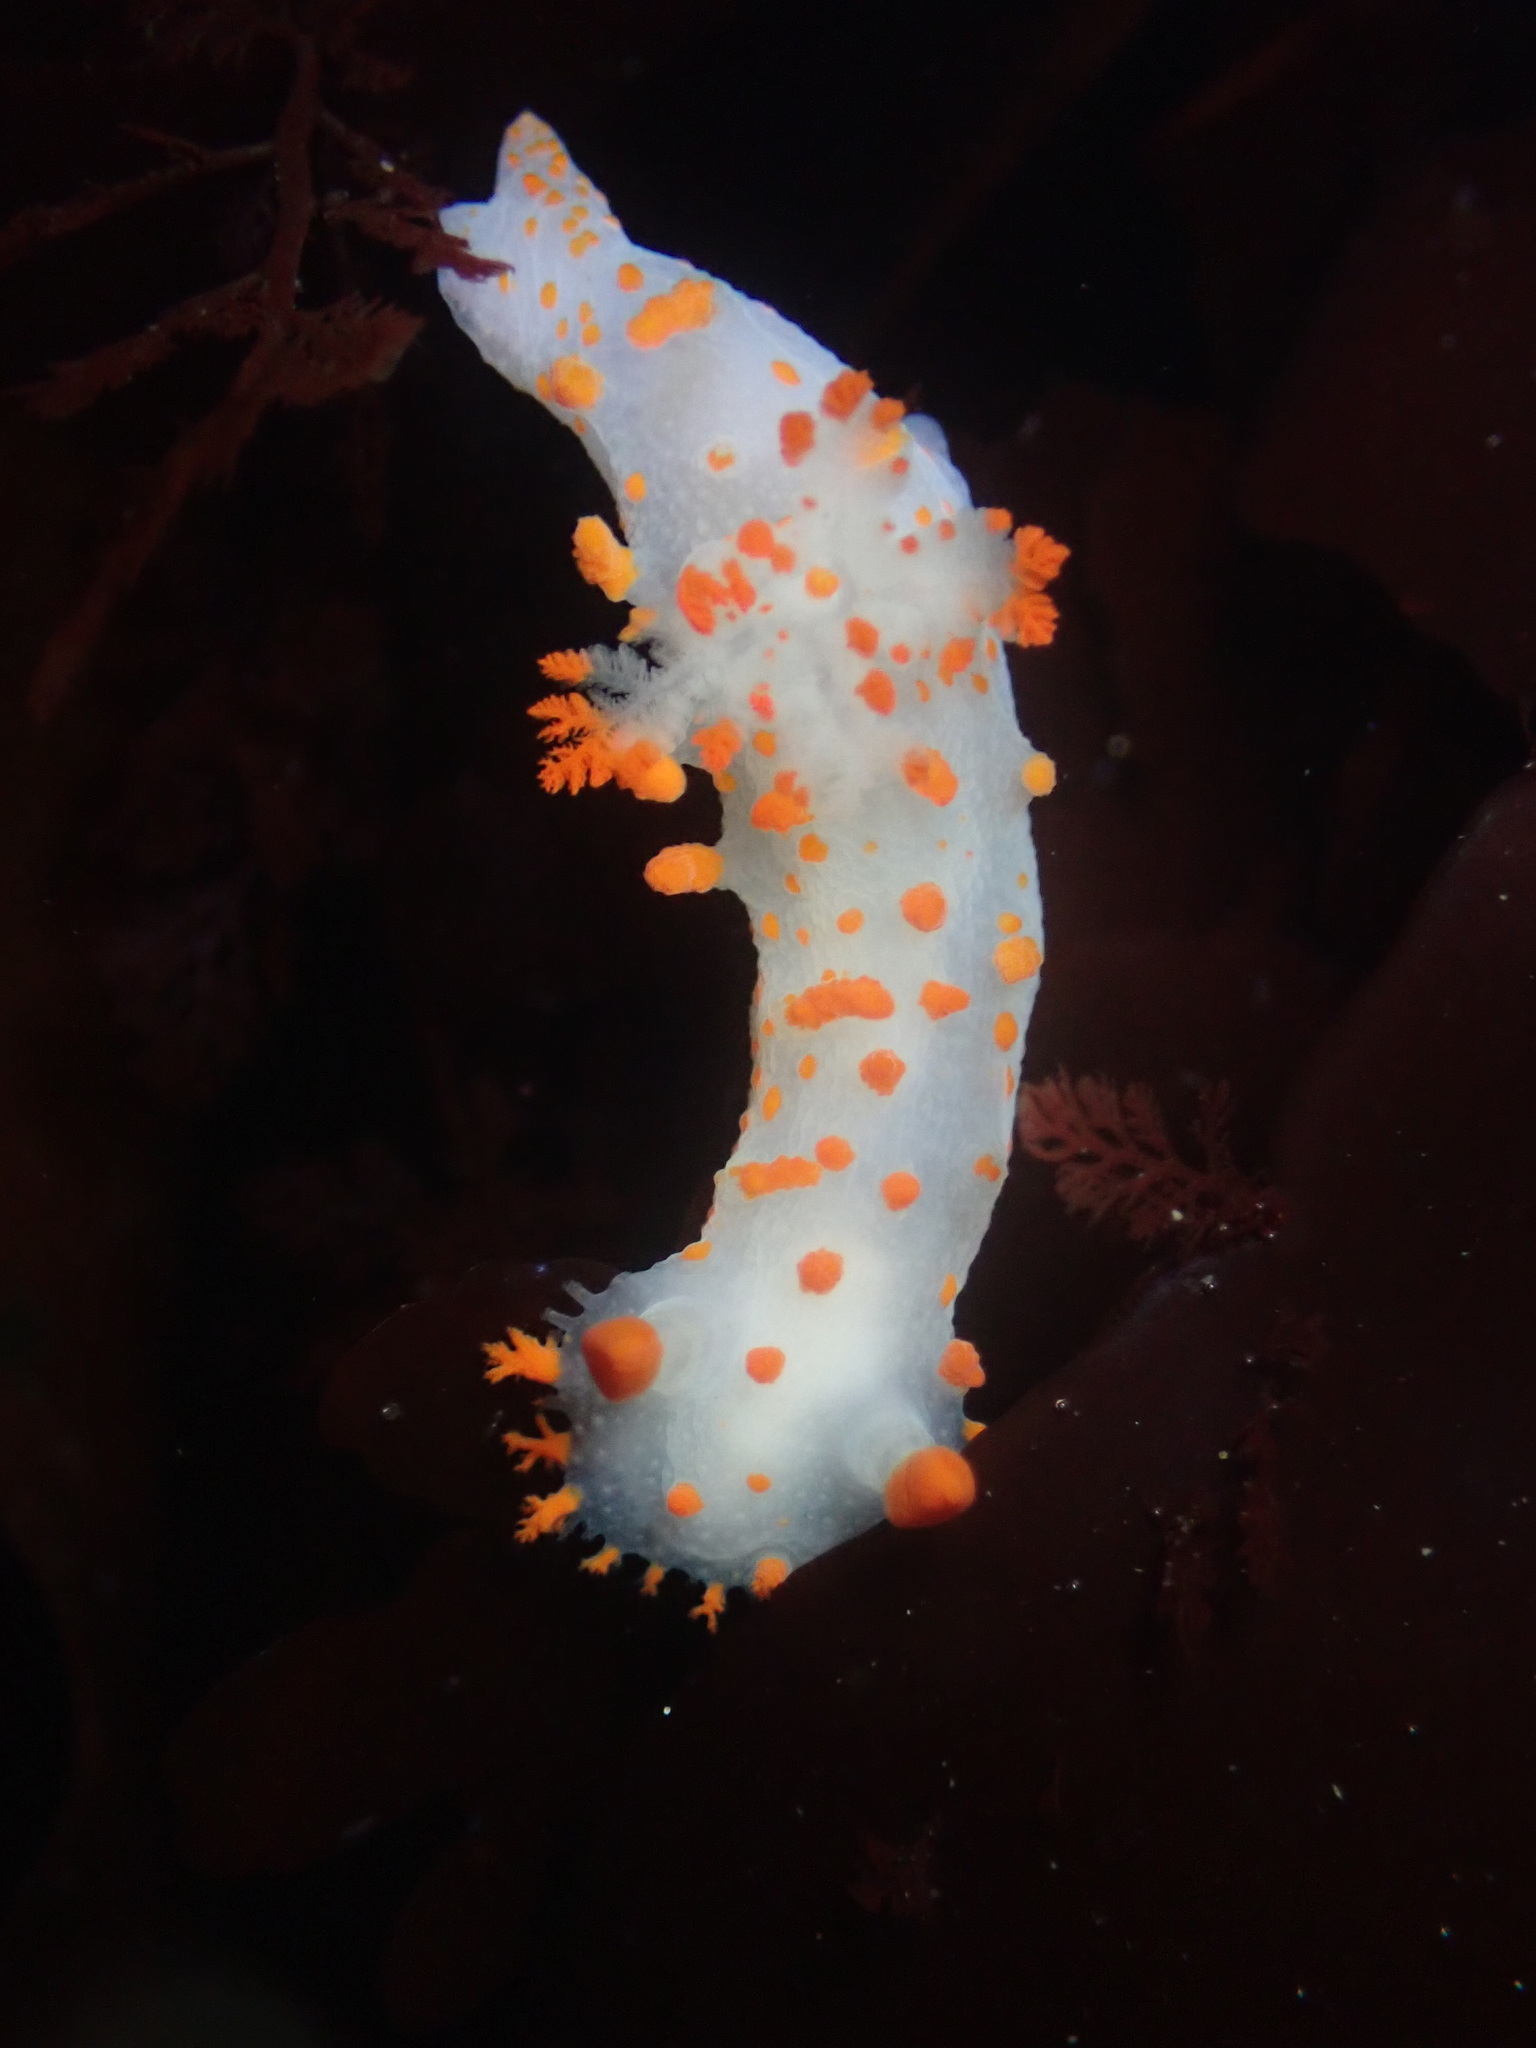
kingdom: Animalia
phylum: Mollusca
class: Gastropoda
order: Nudibranchia
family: Polyceridae
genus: Triopha
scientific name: Triopha catalinae
